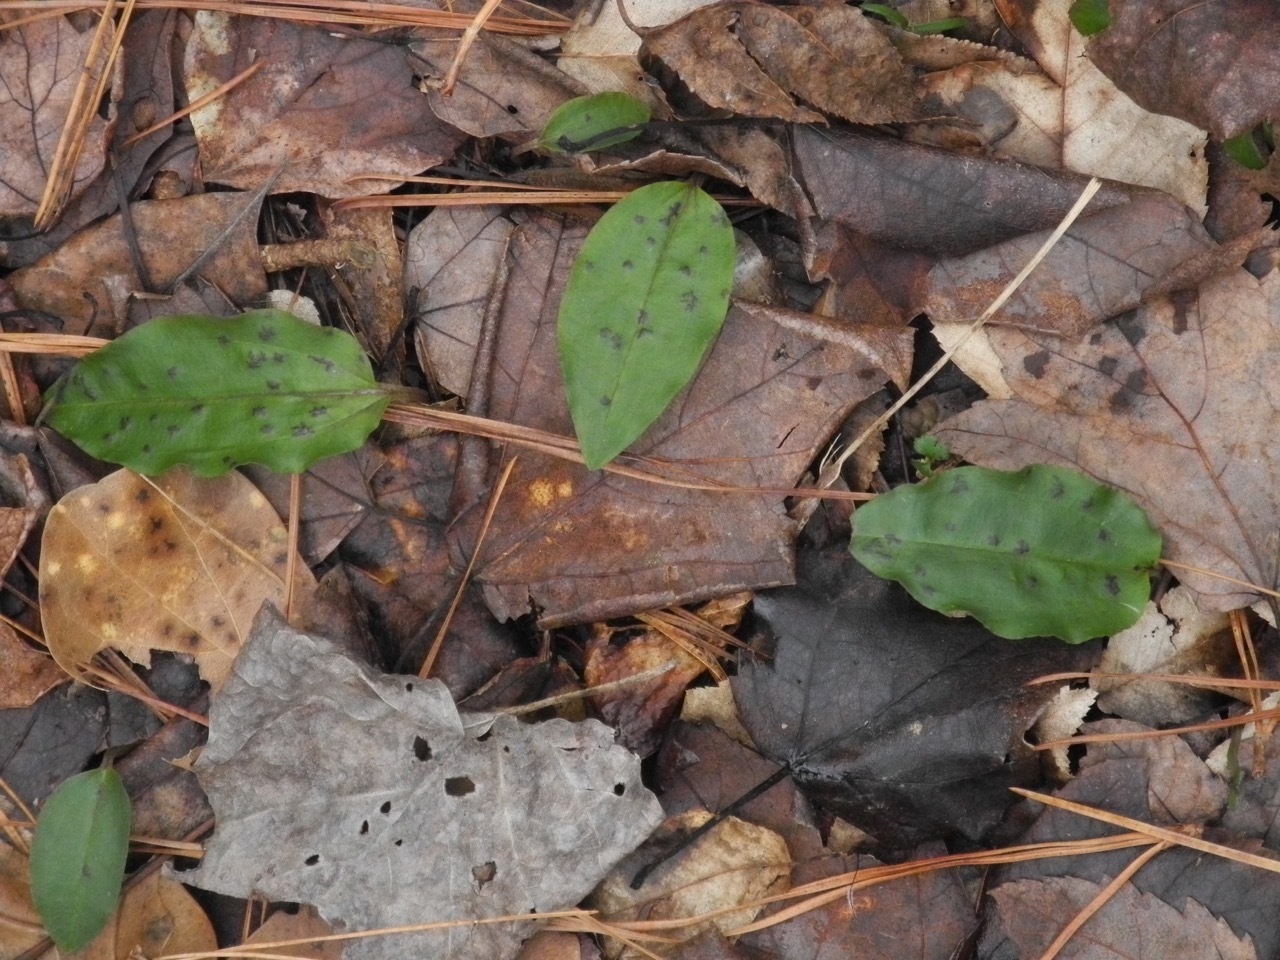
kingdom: Plantae
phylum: Tracheophyta
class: Liliopsida
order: Asparagales
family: Orchidaceae
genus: Tipularia
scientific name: Tipularia discolor
